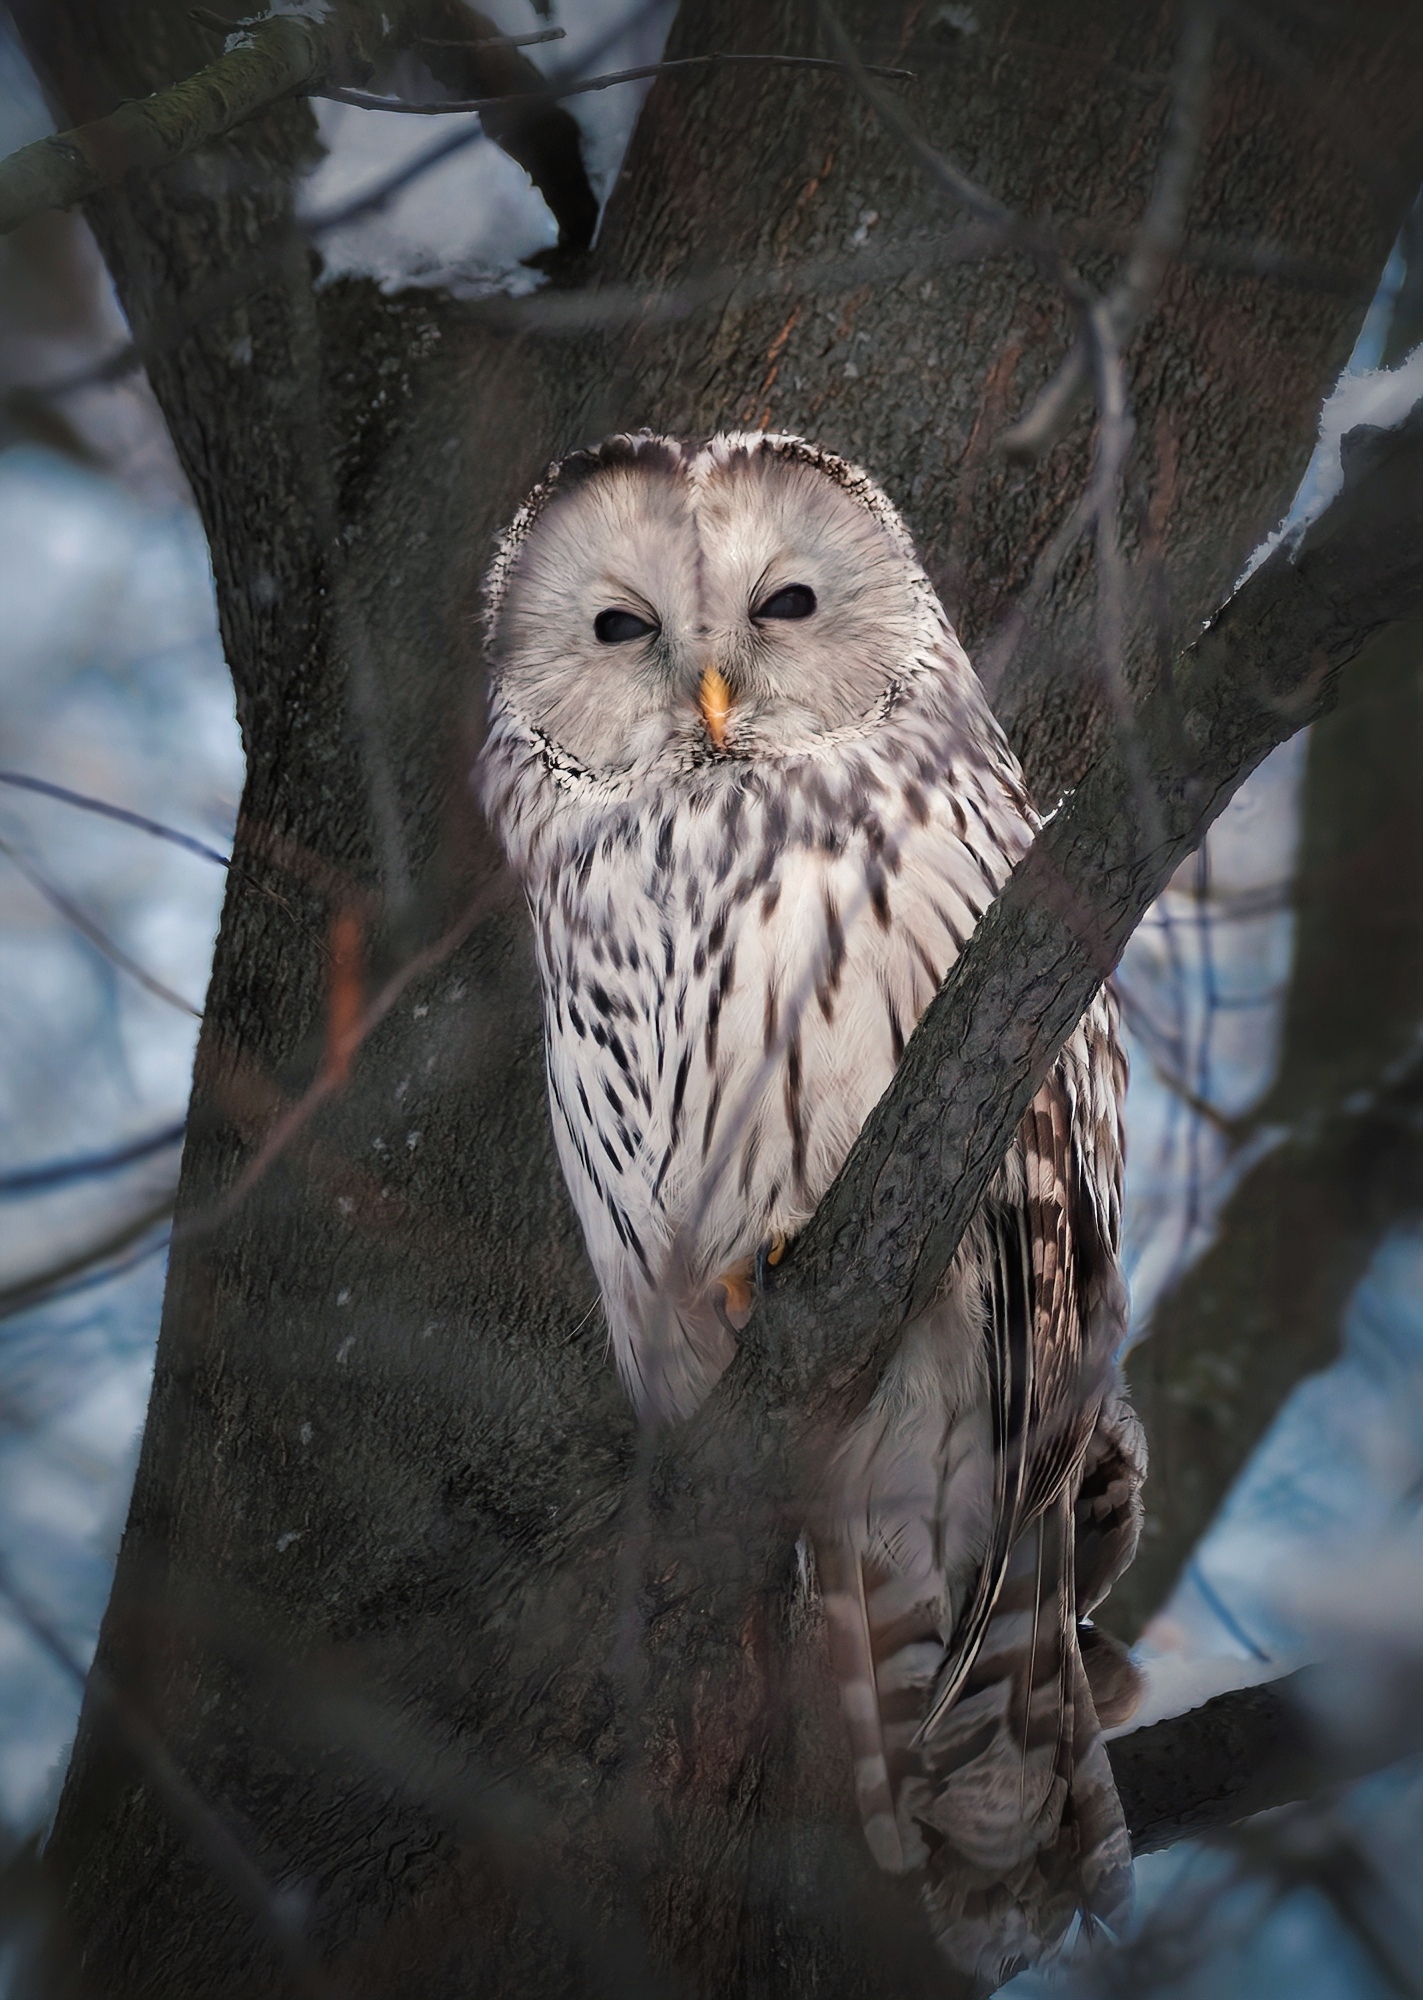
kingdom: Animalia
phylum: Chordata
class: Aves
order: Strigiformes
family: Strigidae
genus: Strix
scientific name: Strix uralensis
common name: Ural owl
